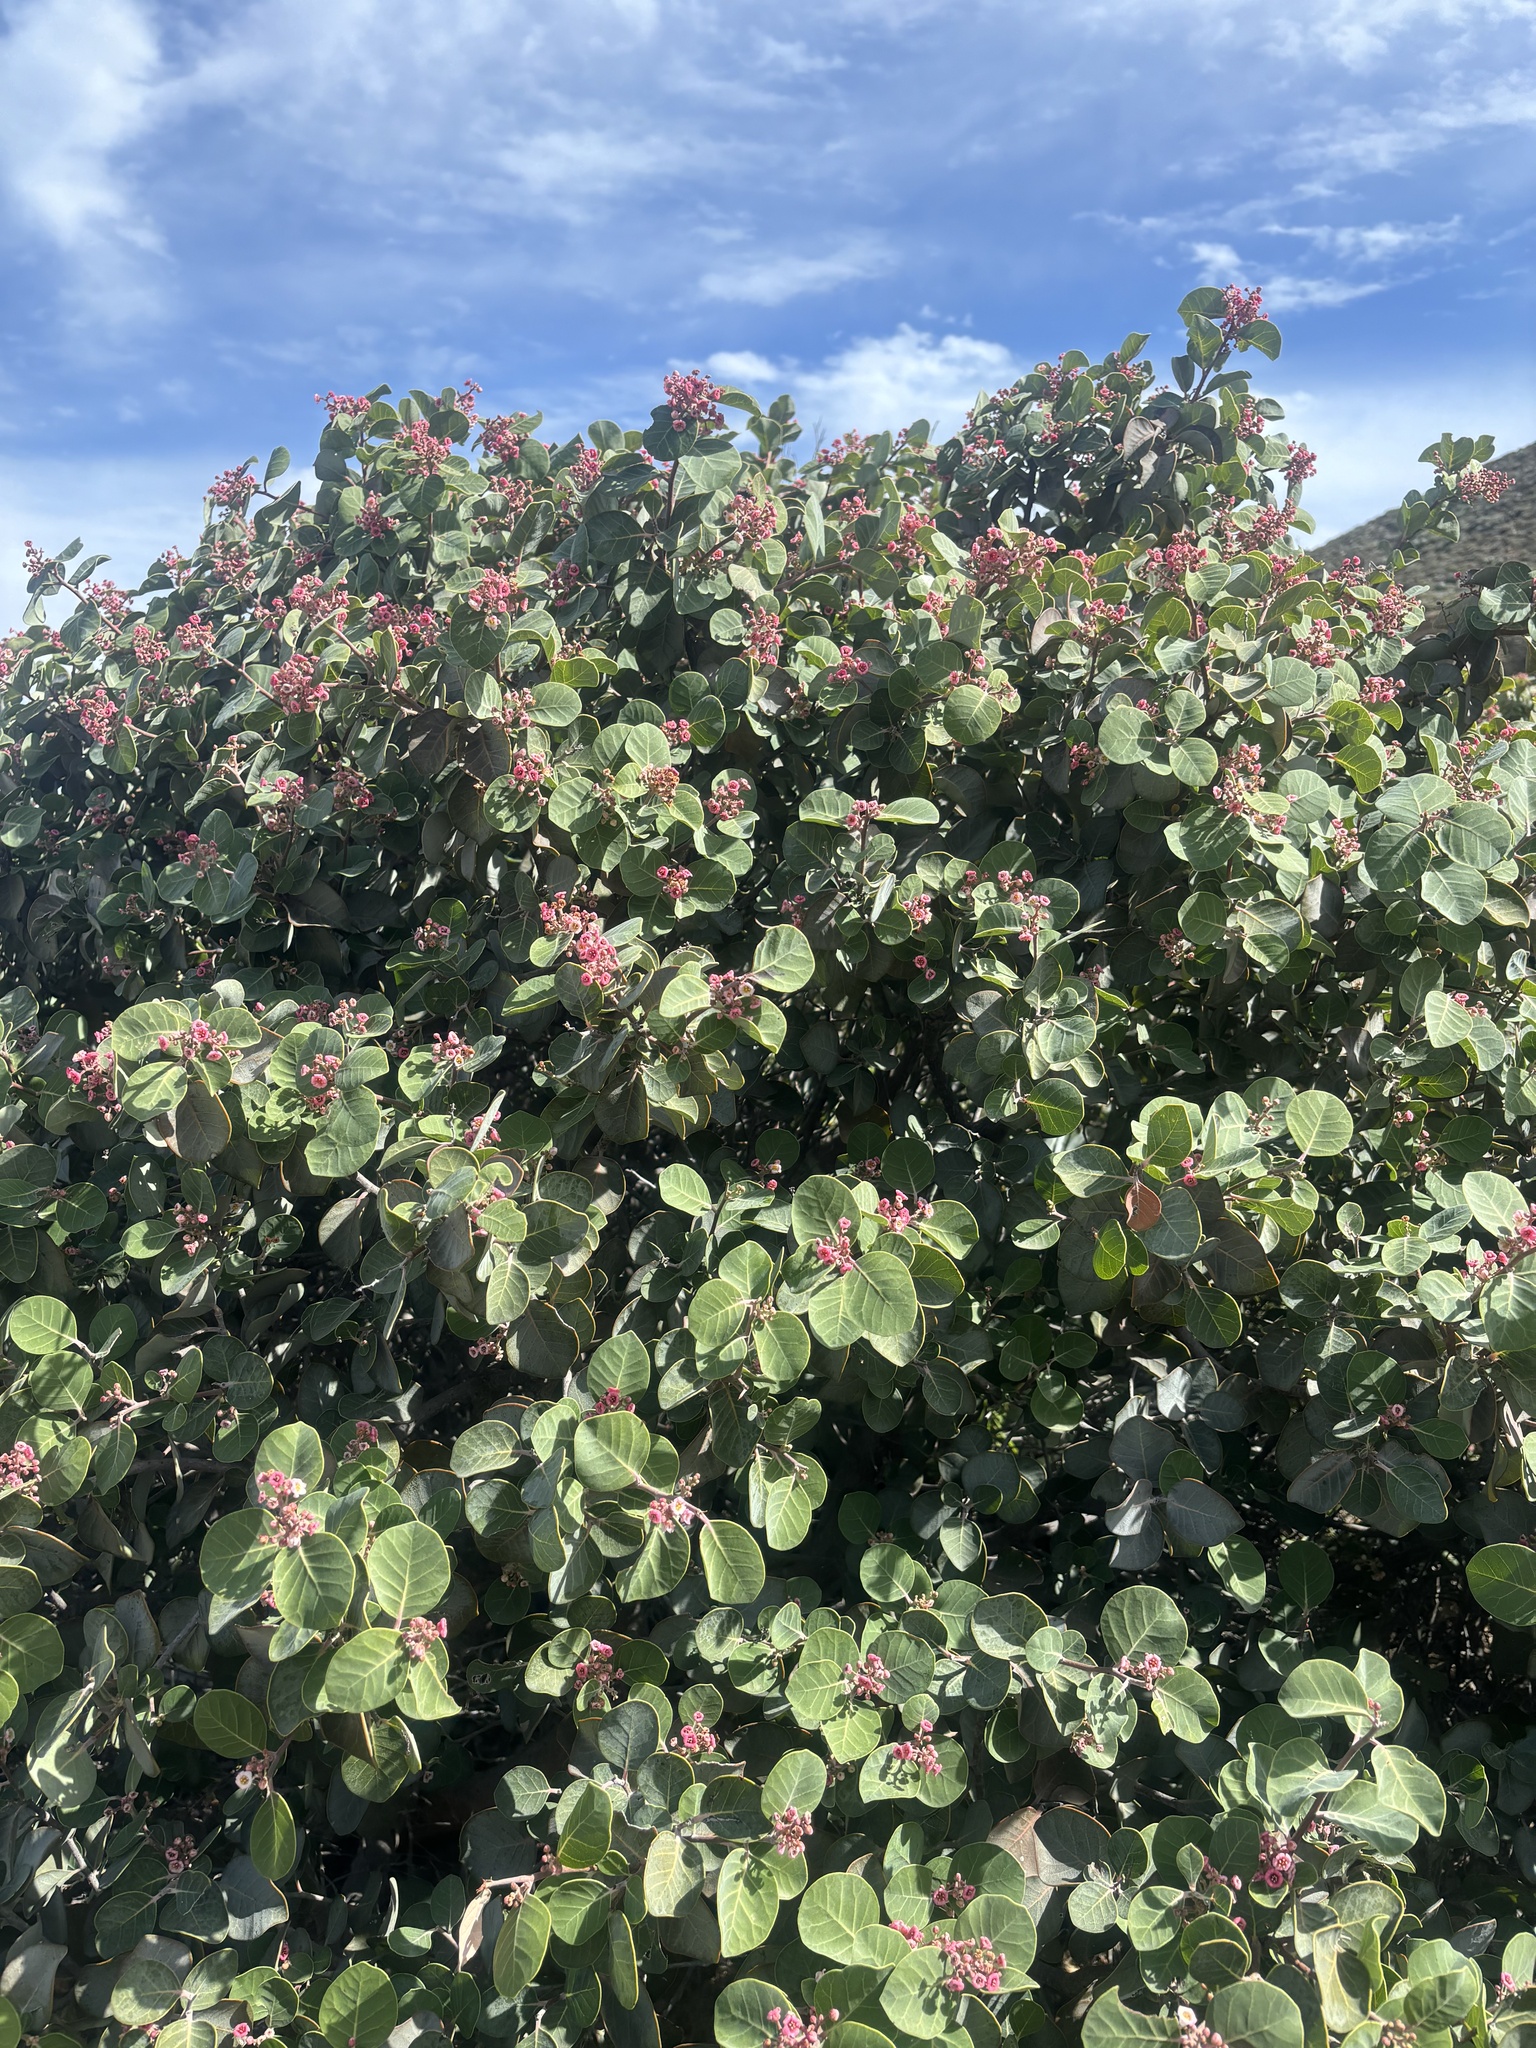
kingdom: Plantae
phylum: Tracheophyta
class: Magnoliopsida
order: Sapindales
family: Anacardiaceae
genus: Rhus
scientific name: Rhus lentii
